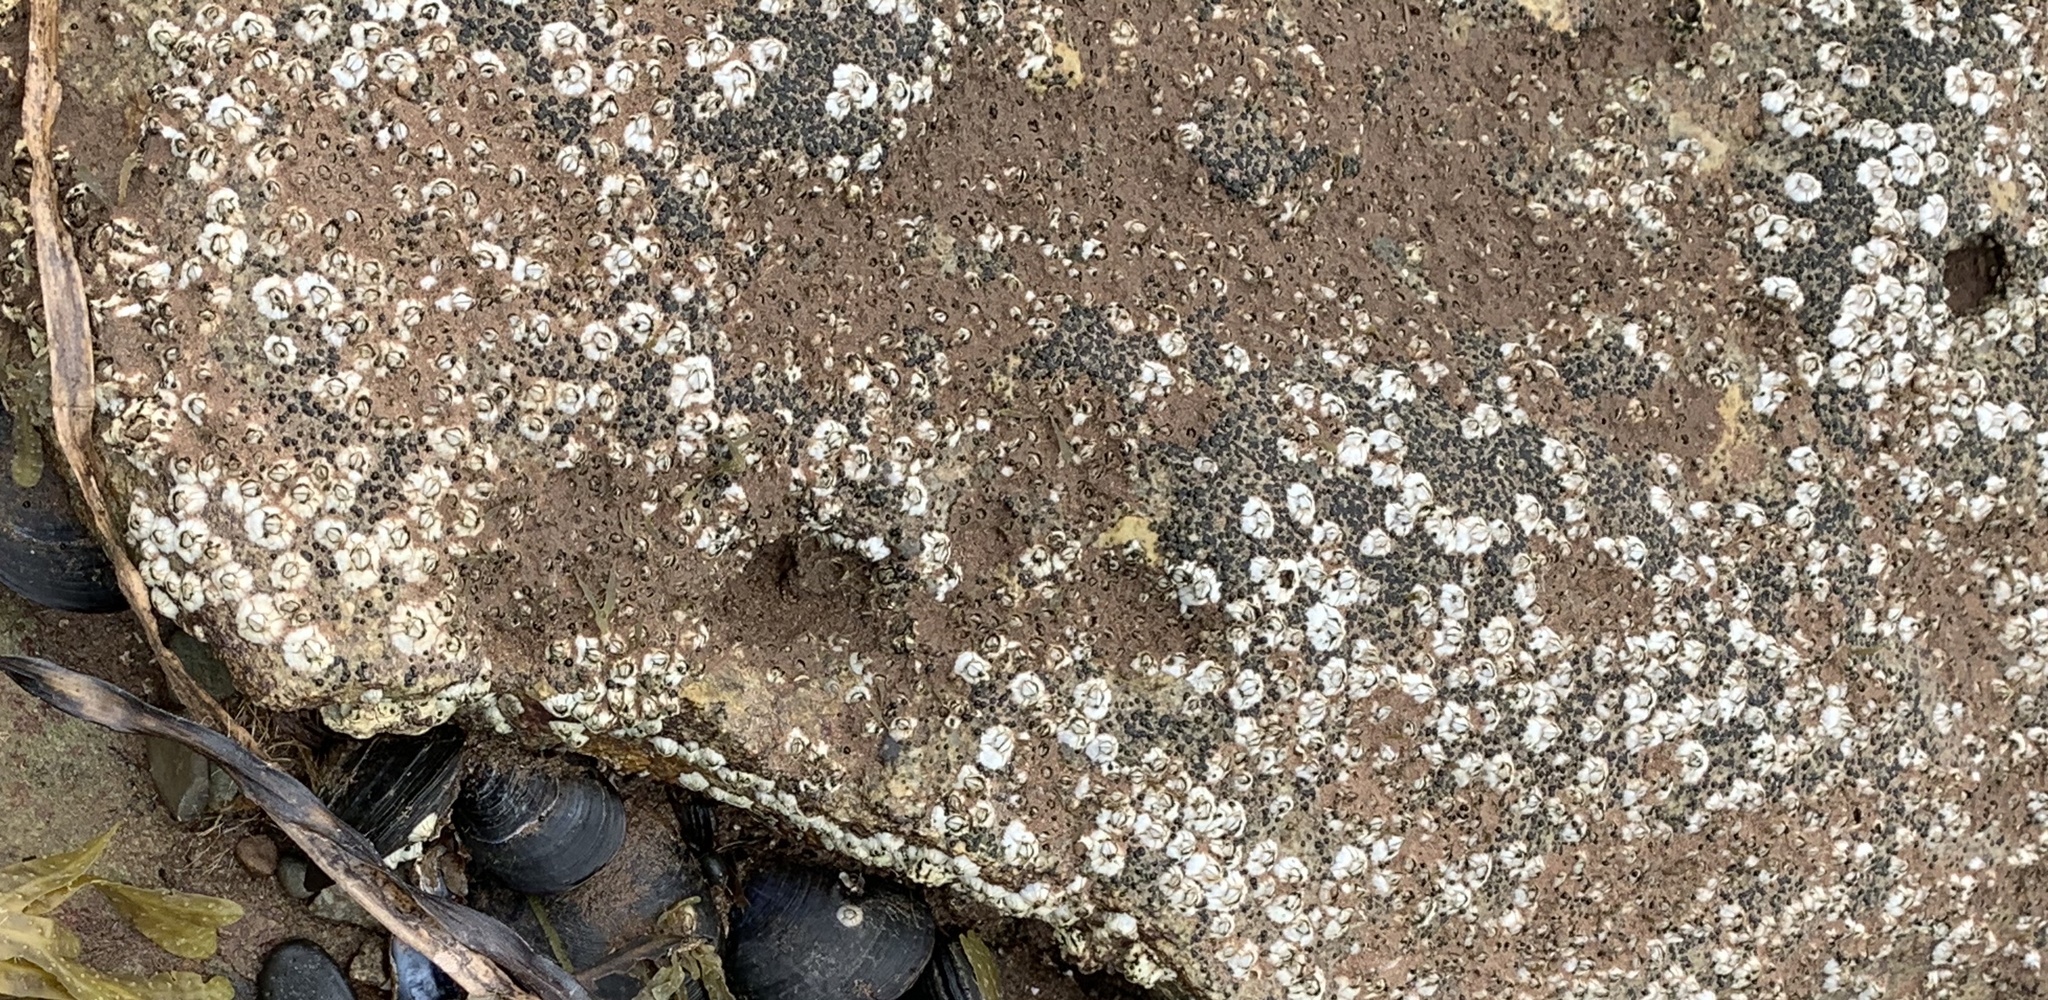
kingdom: Animalia
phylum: Arthropoda
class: Maxillopoda
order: Sessilia
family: Archaeobalanidae
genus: Semibalanus
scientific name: Semibalanus balanoides
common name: Acorn barnacle
